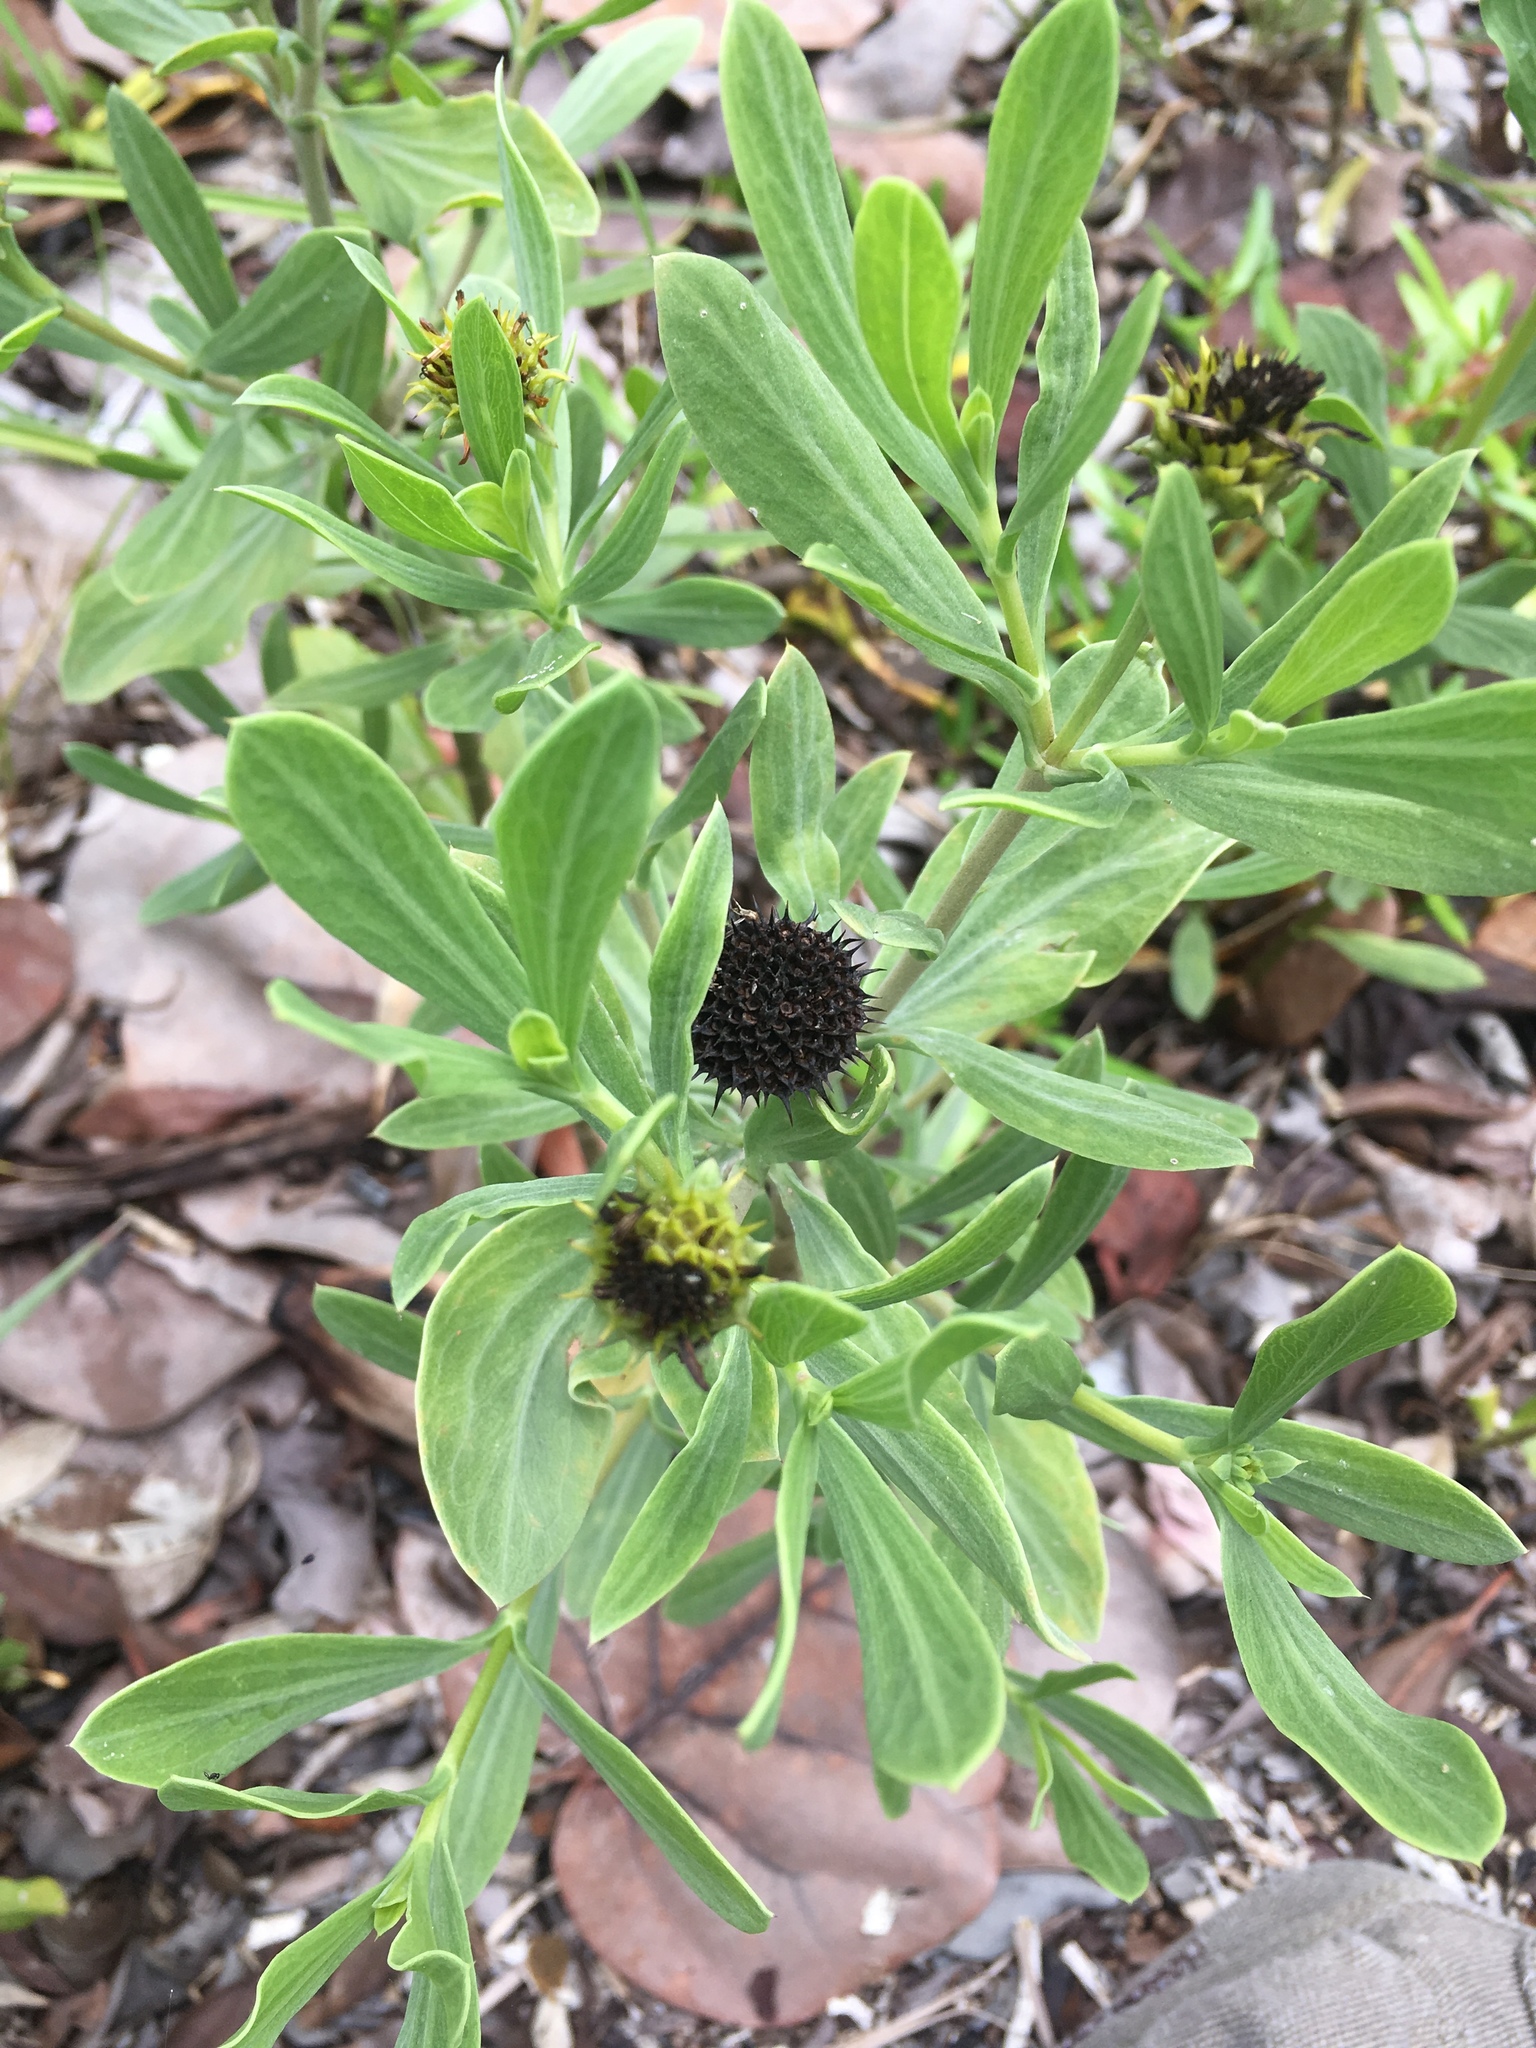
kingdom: Plantae
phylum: Tracheophyta
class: Magnoliopsida
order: Asterales
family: Asteraceae
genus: Borrichia
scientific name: Borrichia frutescens
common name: Sea oxeye
